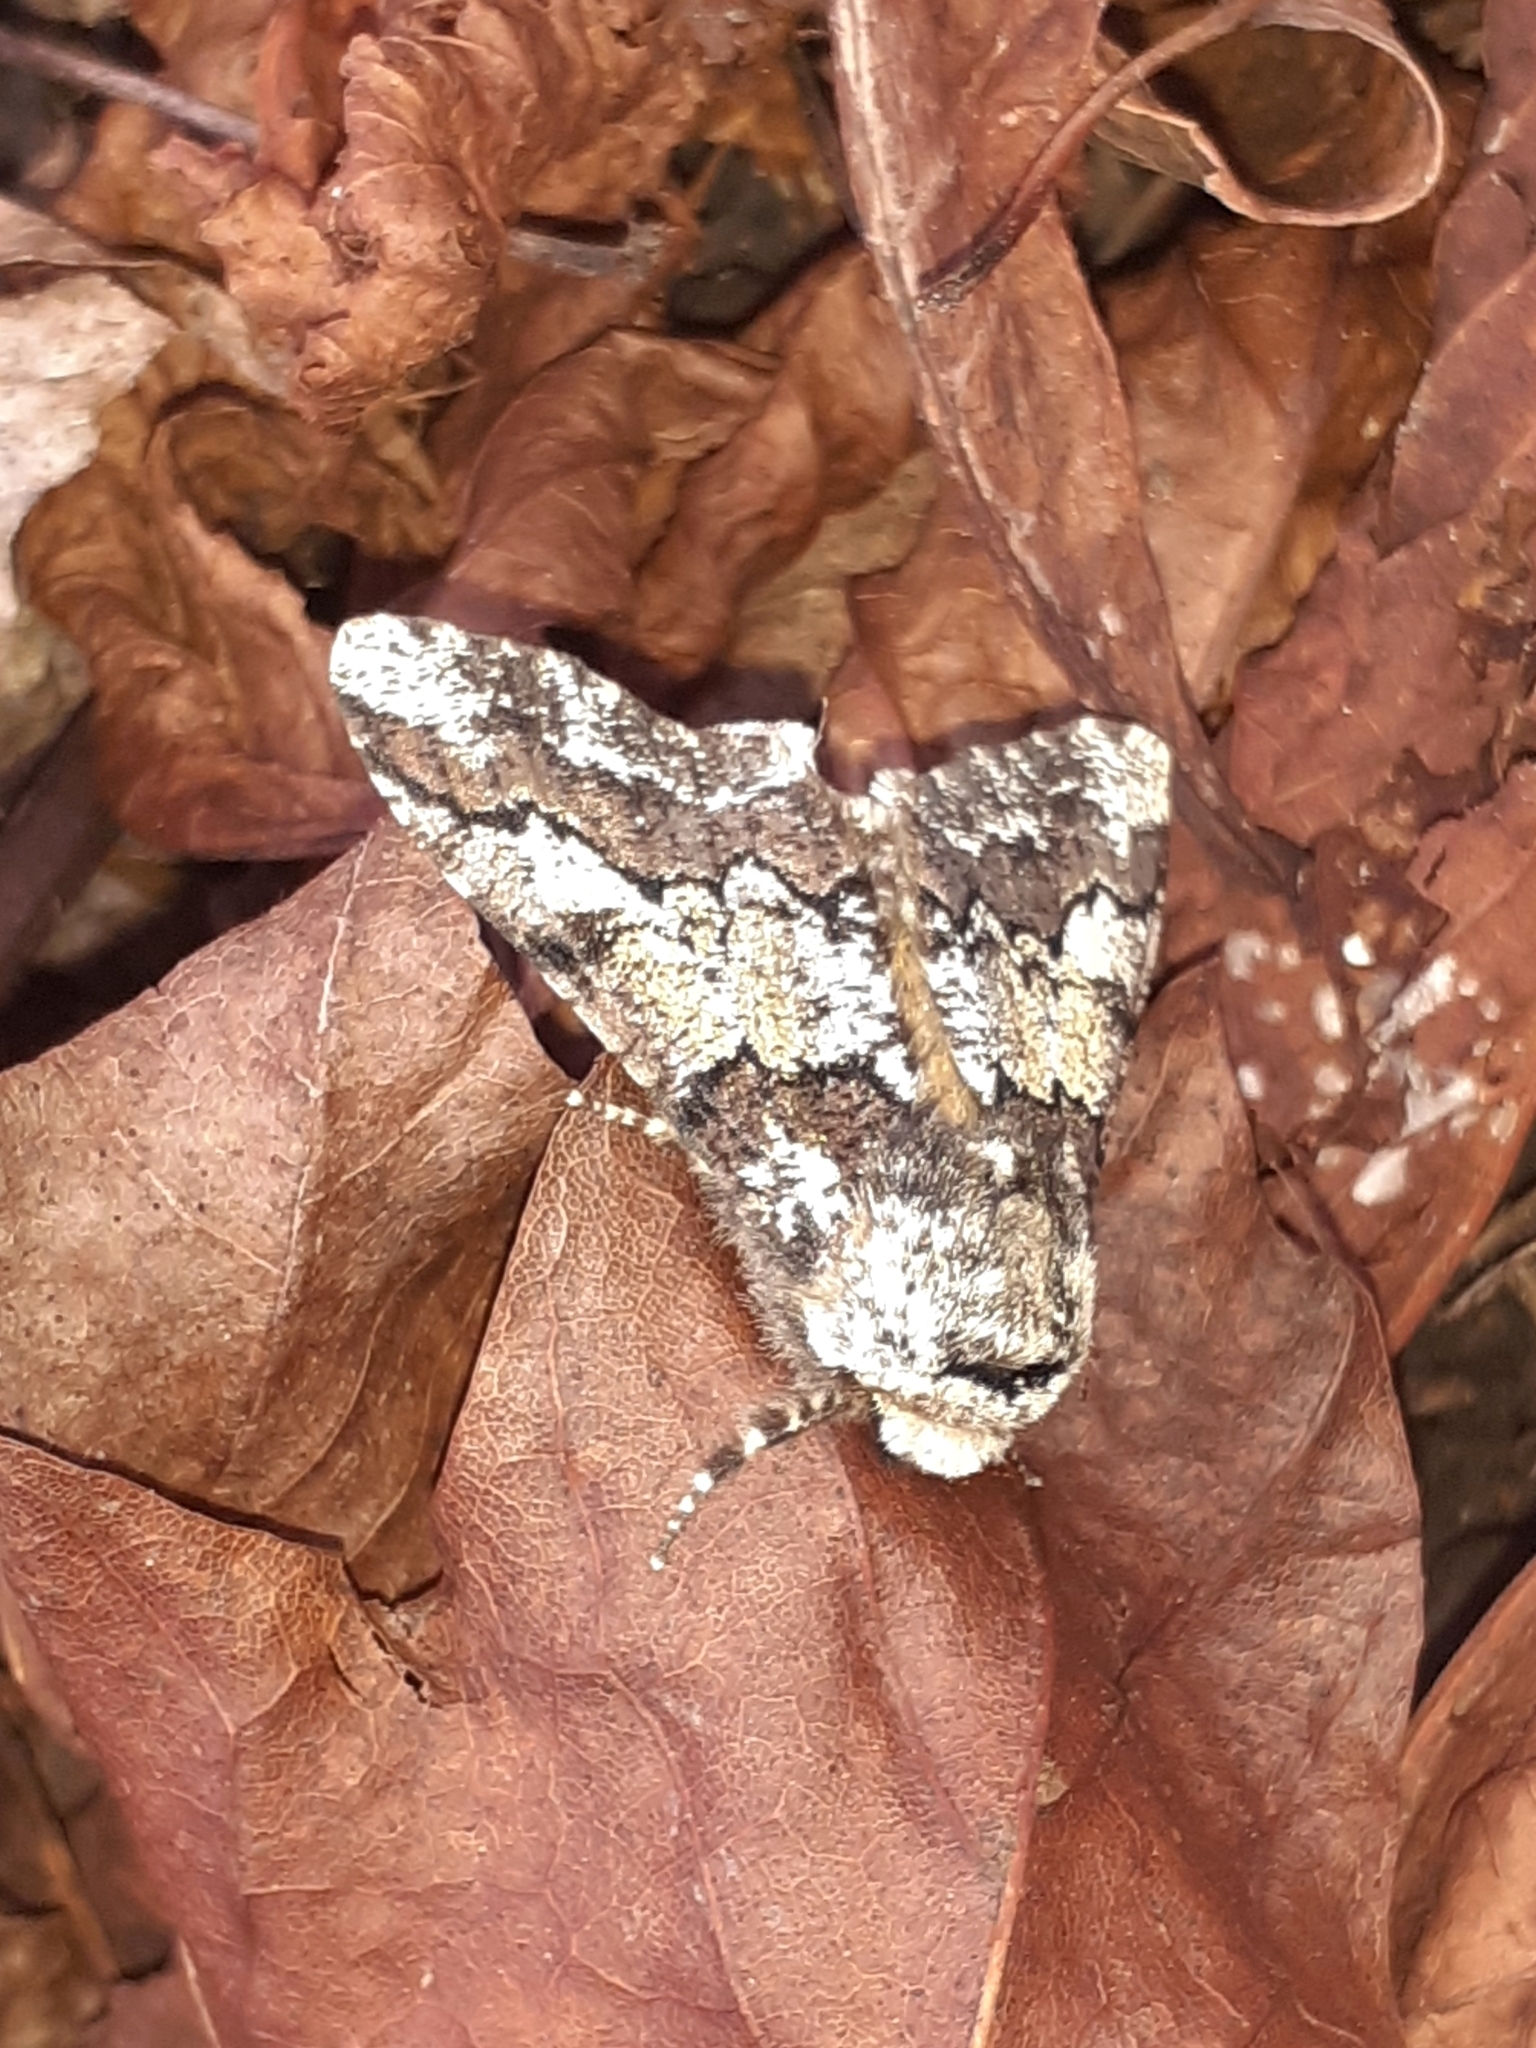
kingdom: Animalia
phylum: Arthropoda
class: Insecta
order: Lepidoptera
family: Geometridae
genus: Biston
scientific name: Biston strataria
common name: Oak beauty
